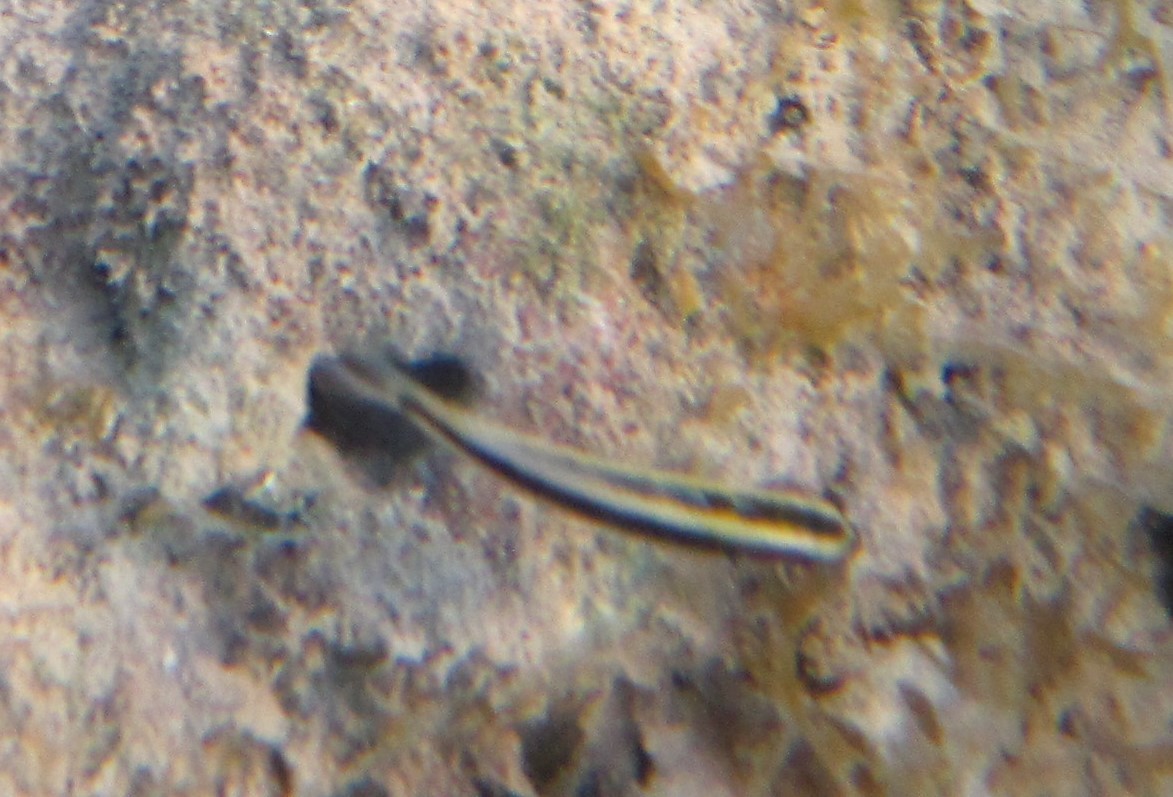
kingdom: Animalia
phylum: Chordata
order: Perciformes
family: Labridae
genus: Thalassoma
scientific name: Thalassoma bifasciatum
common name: Bluehead wrasse
